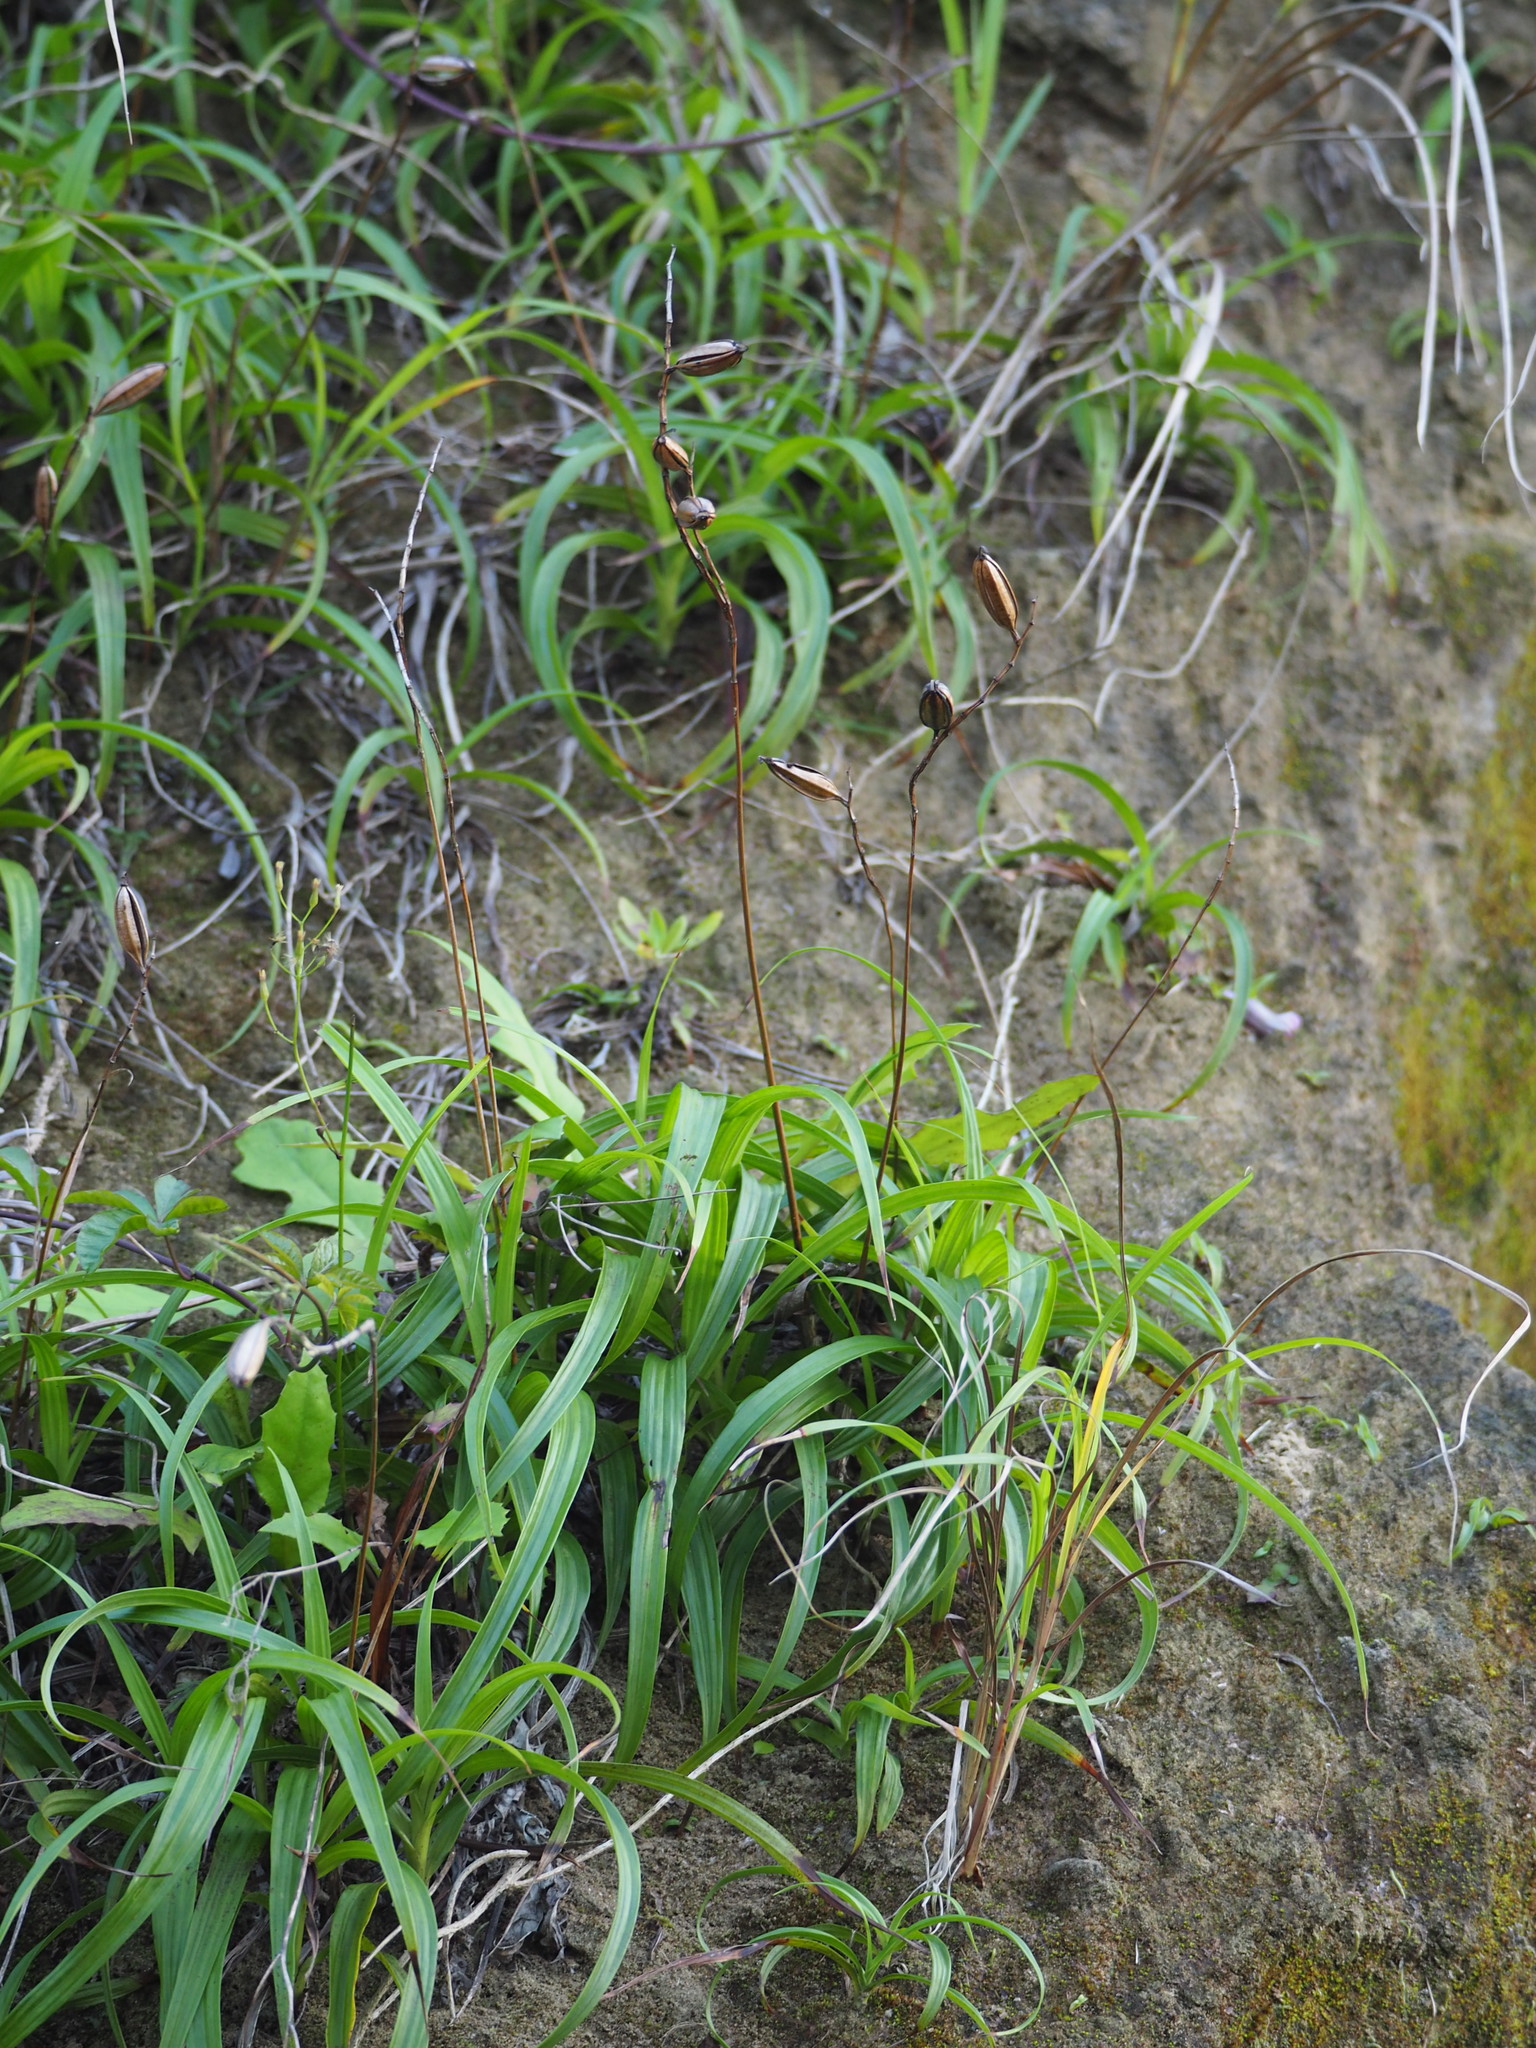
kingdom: Plantae
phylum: Tracheophyta
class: Liliopsida
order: Asparagales
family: Orchidaceae
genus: Bletilla
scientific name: Bletilla formosana
